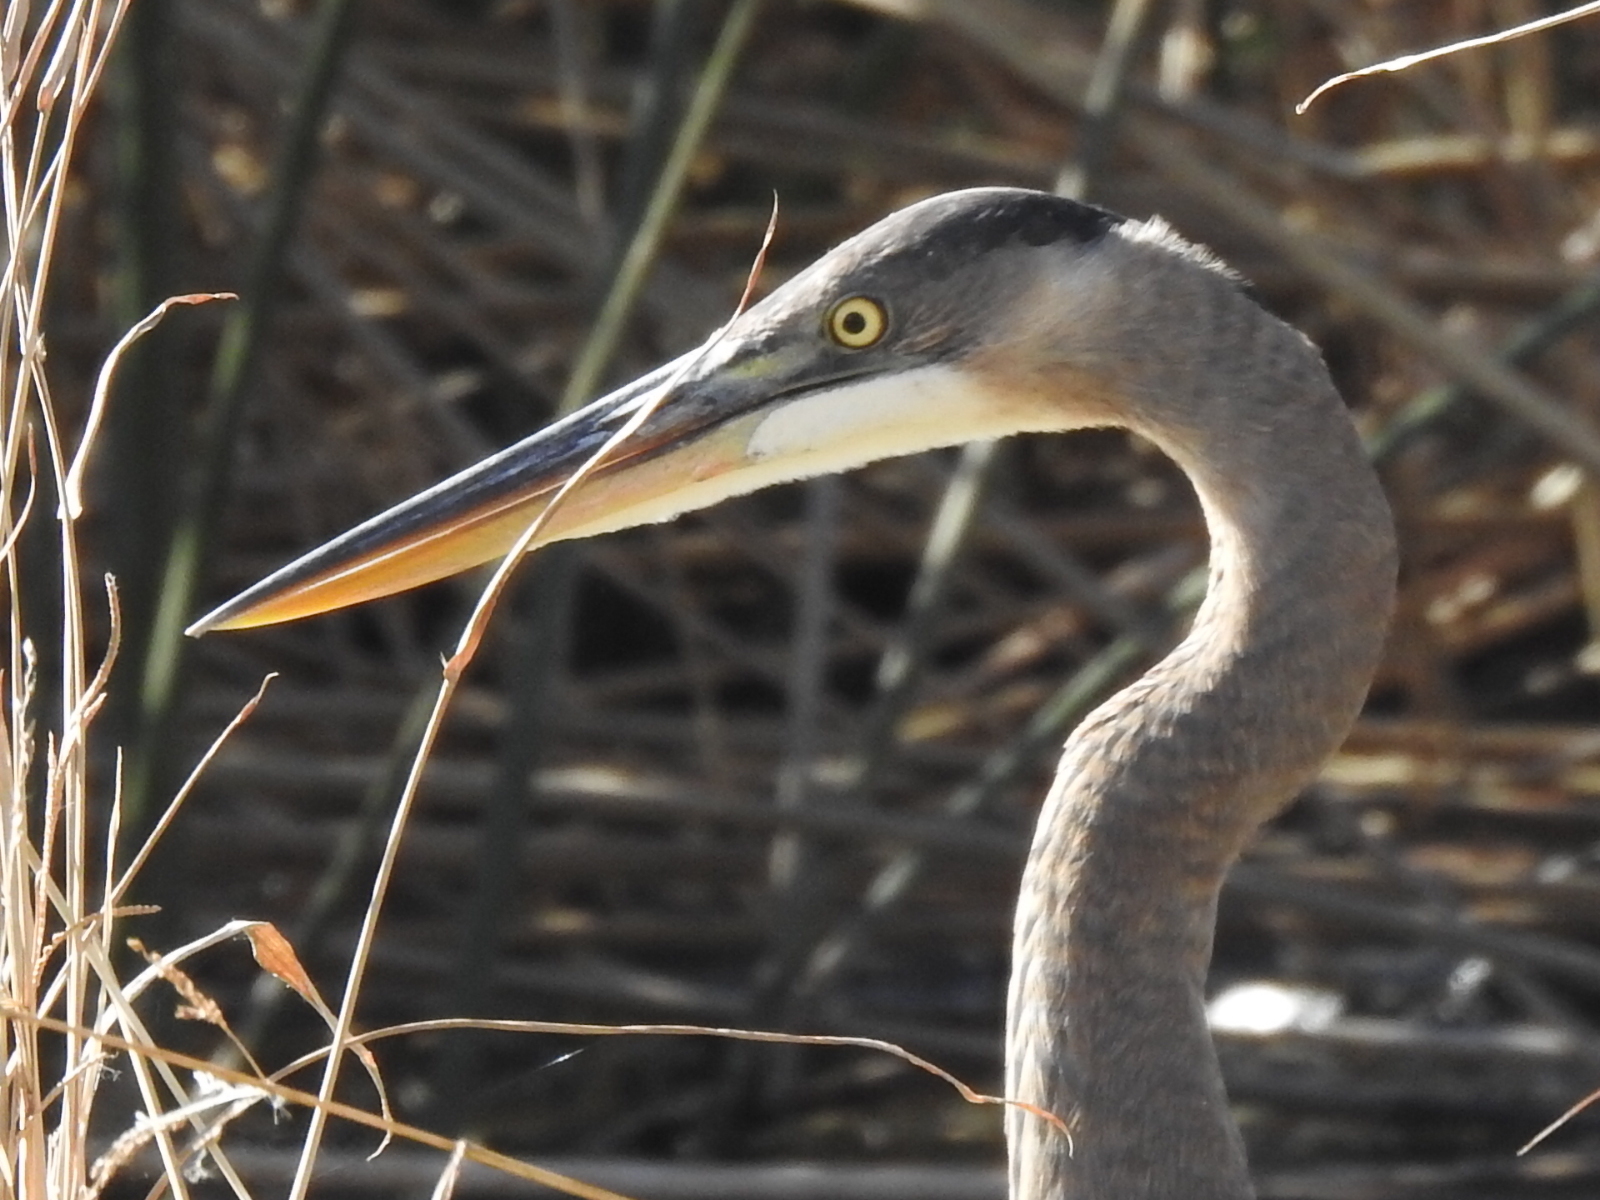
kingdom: Animalia
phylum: Chordata
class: Aves
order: Pelecaniformes
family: Ardeidae
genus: Ardea
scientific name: Ardea herodias
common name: Great blue heron
